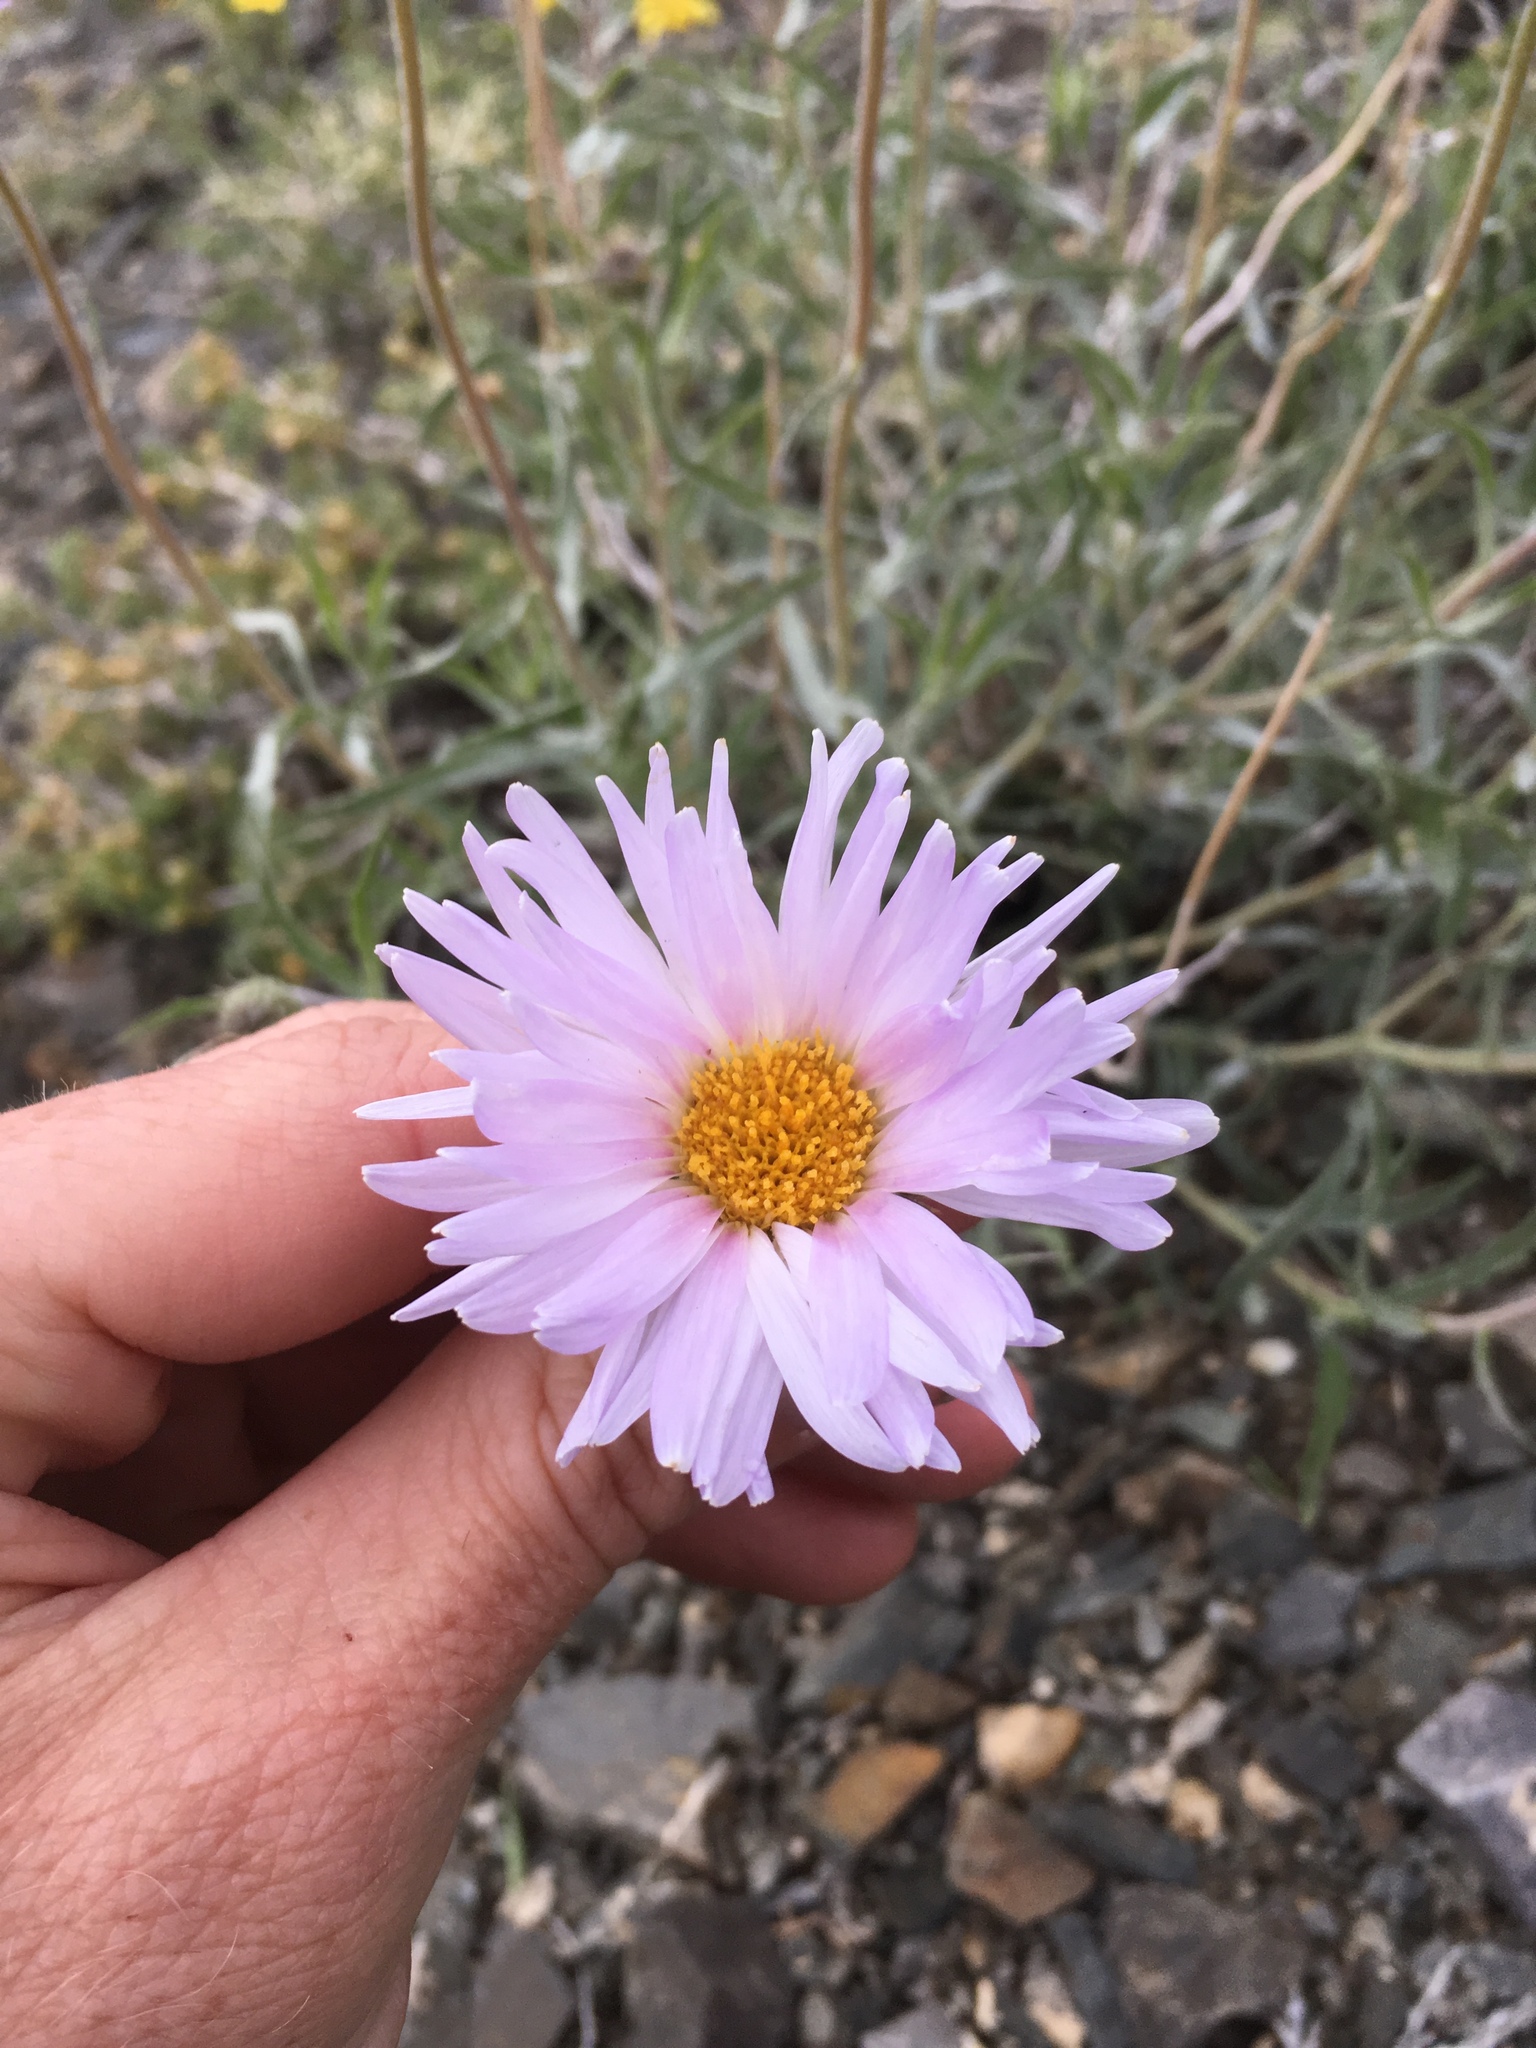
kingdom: Plantae
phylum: Tracheophyta
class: Magnoliopsida
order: Asterales
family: Asteraceae
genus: Xylorhiza
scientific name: Xylorhiza tortifolia
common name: Hurt-leaf woody-aster
